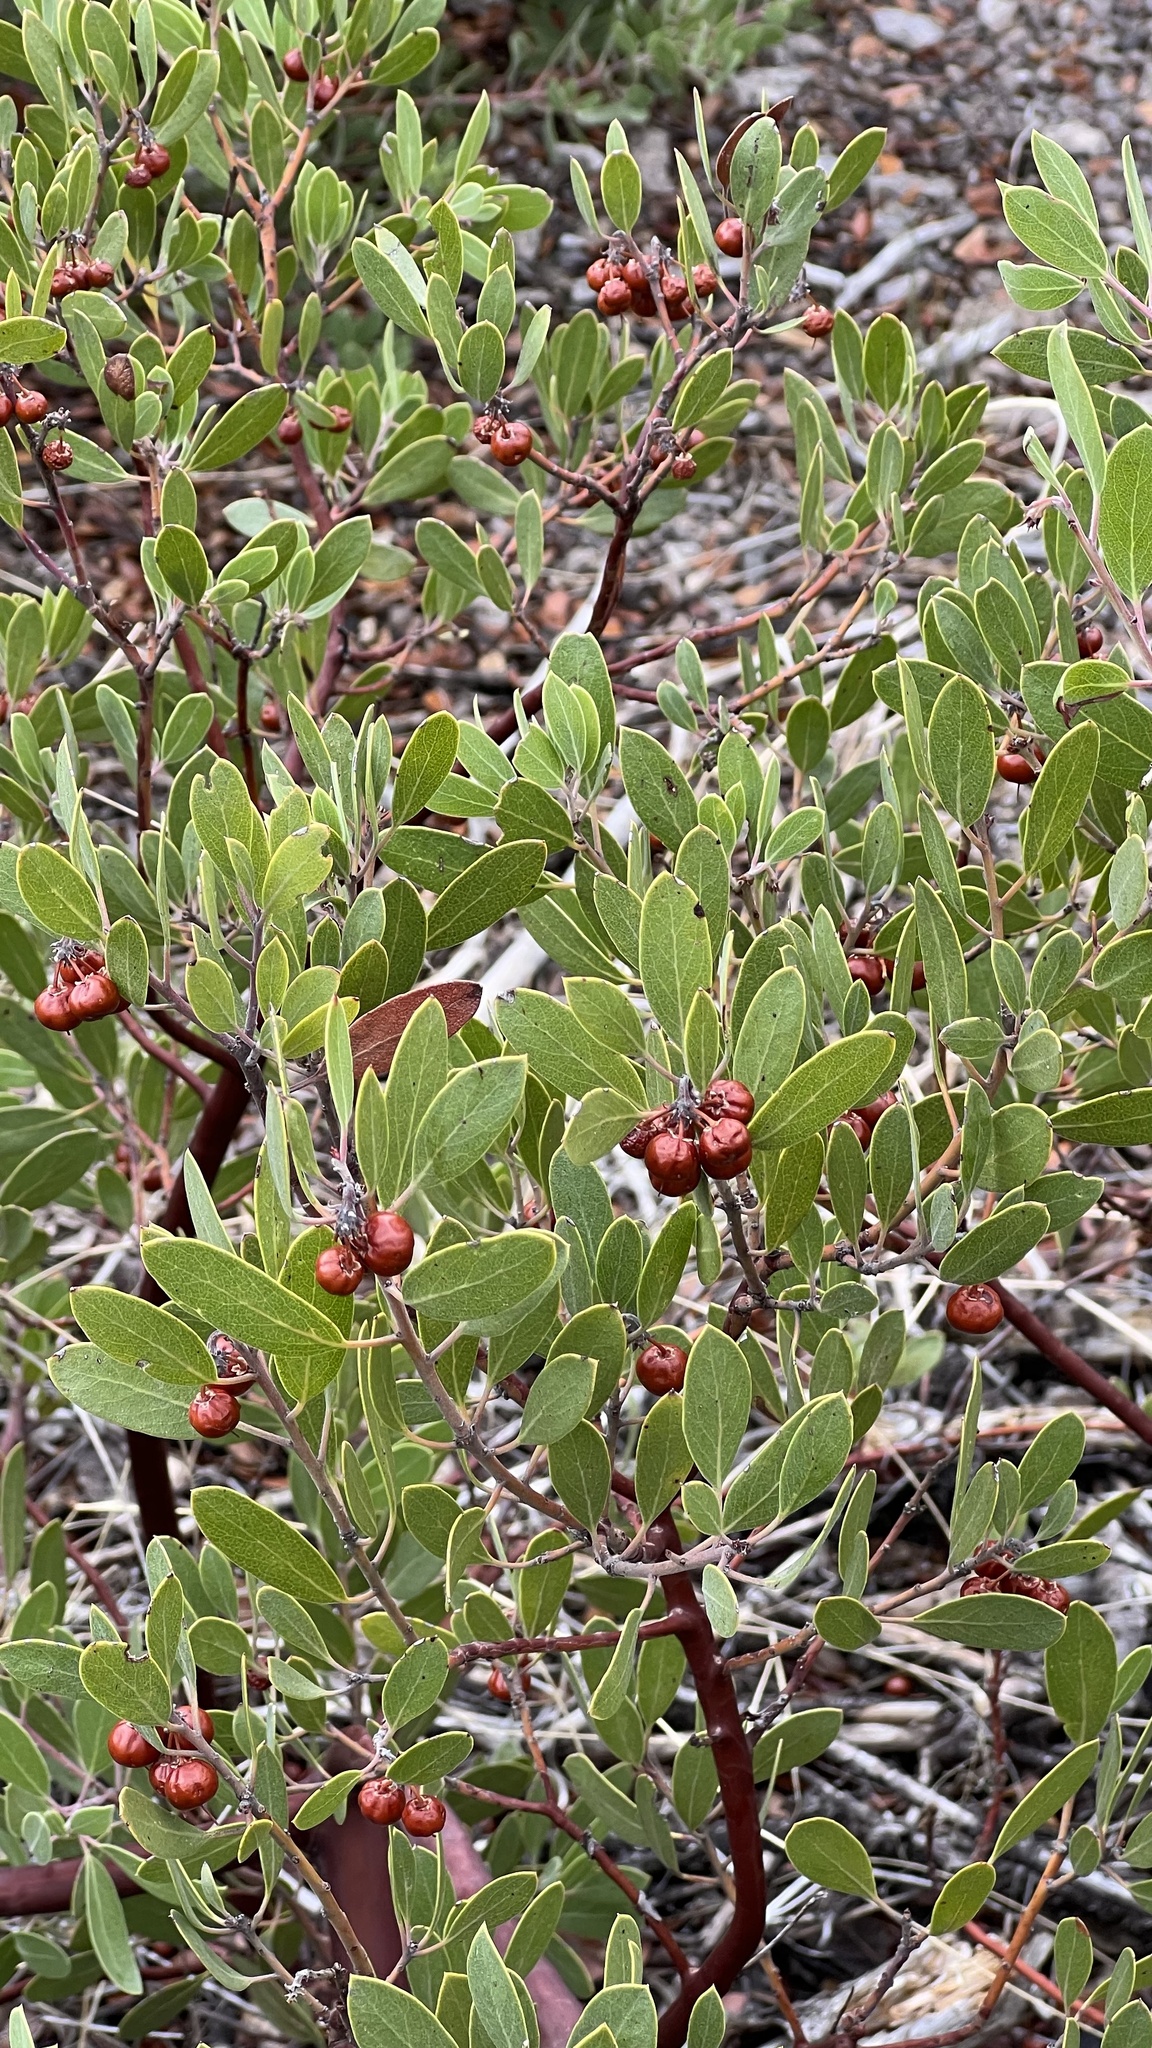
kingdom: Plantae
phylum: Tracheophyta
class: Magnoliopsida
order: Ericales
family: Ericaceae
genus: Arctostaphylos
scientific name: Arctostaphylos pungens
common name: Mexican manzanita
